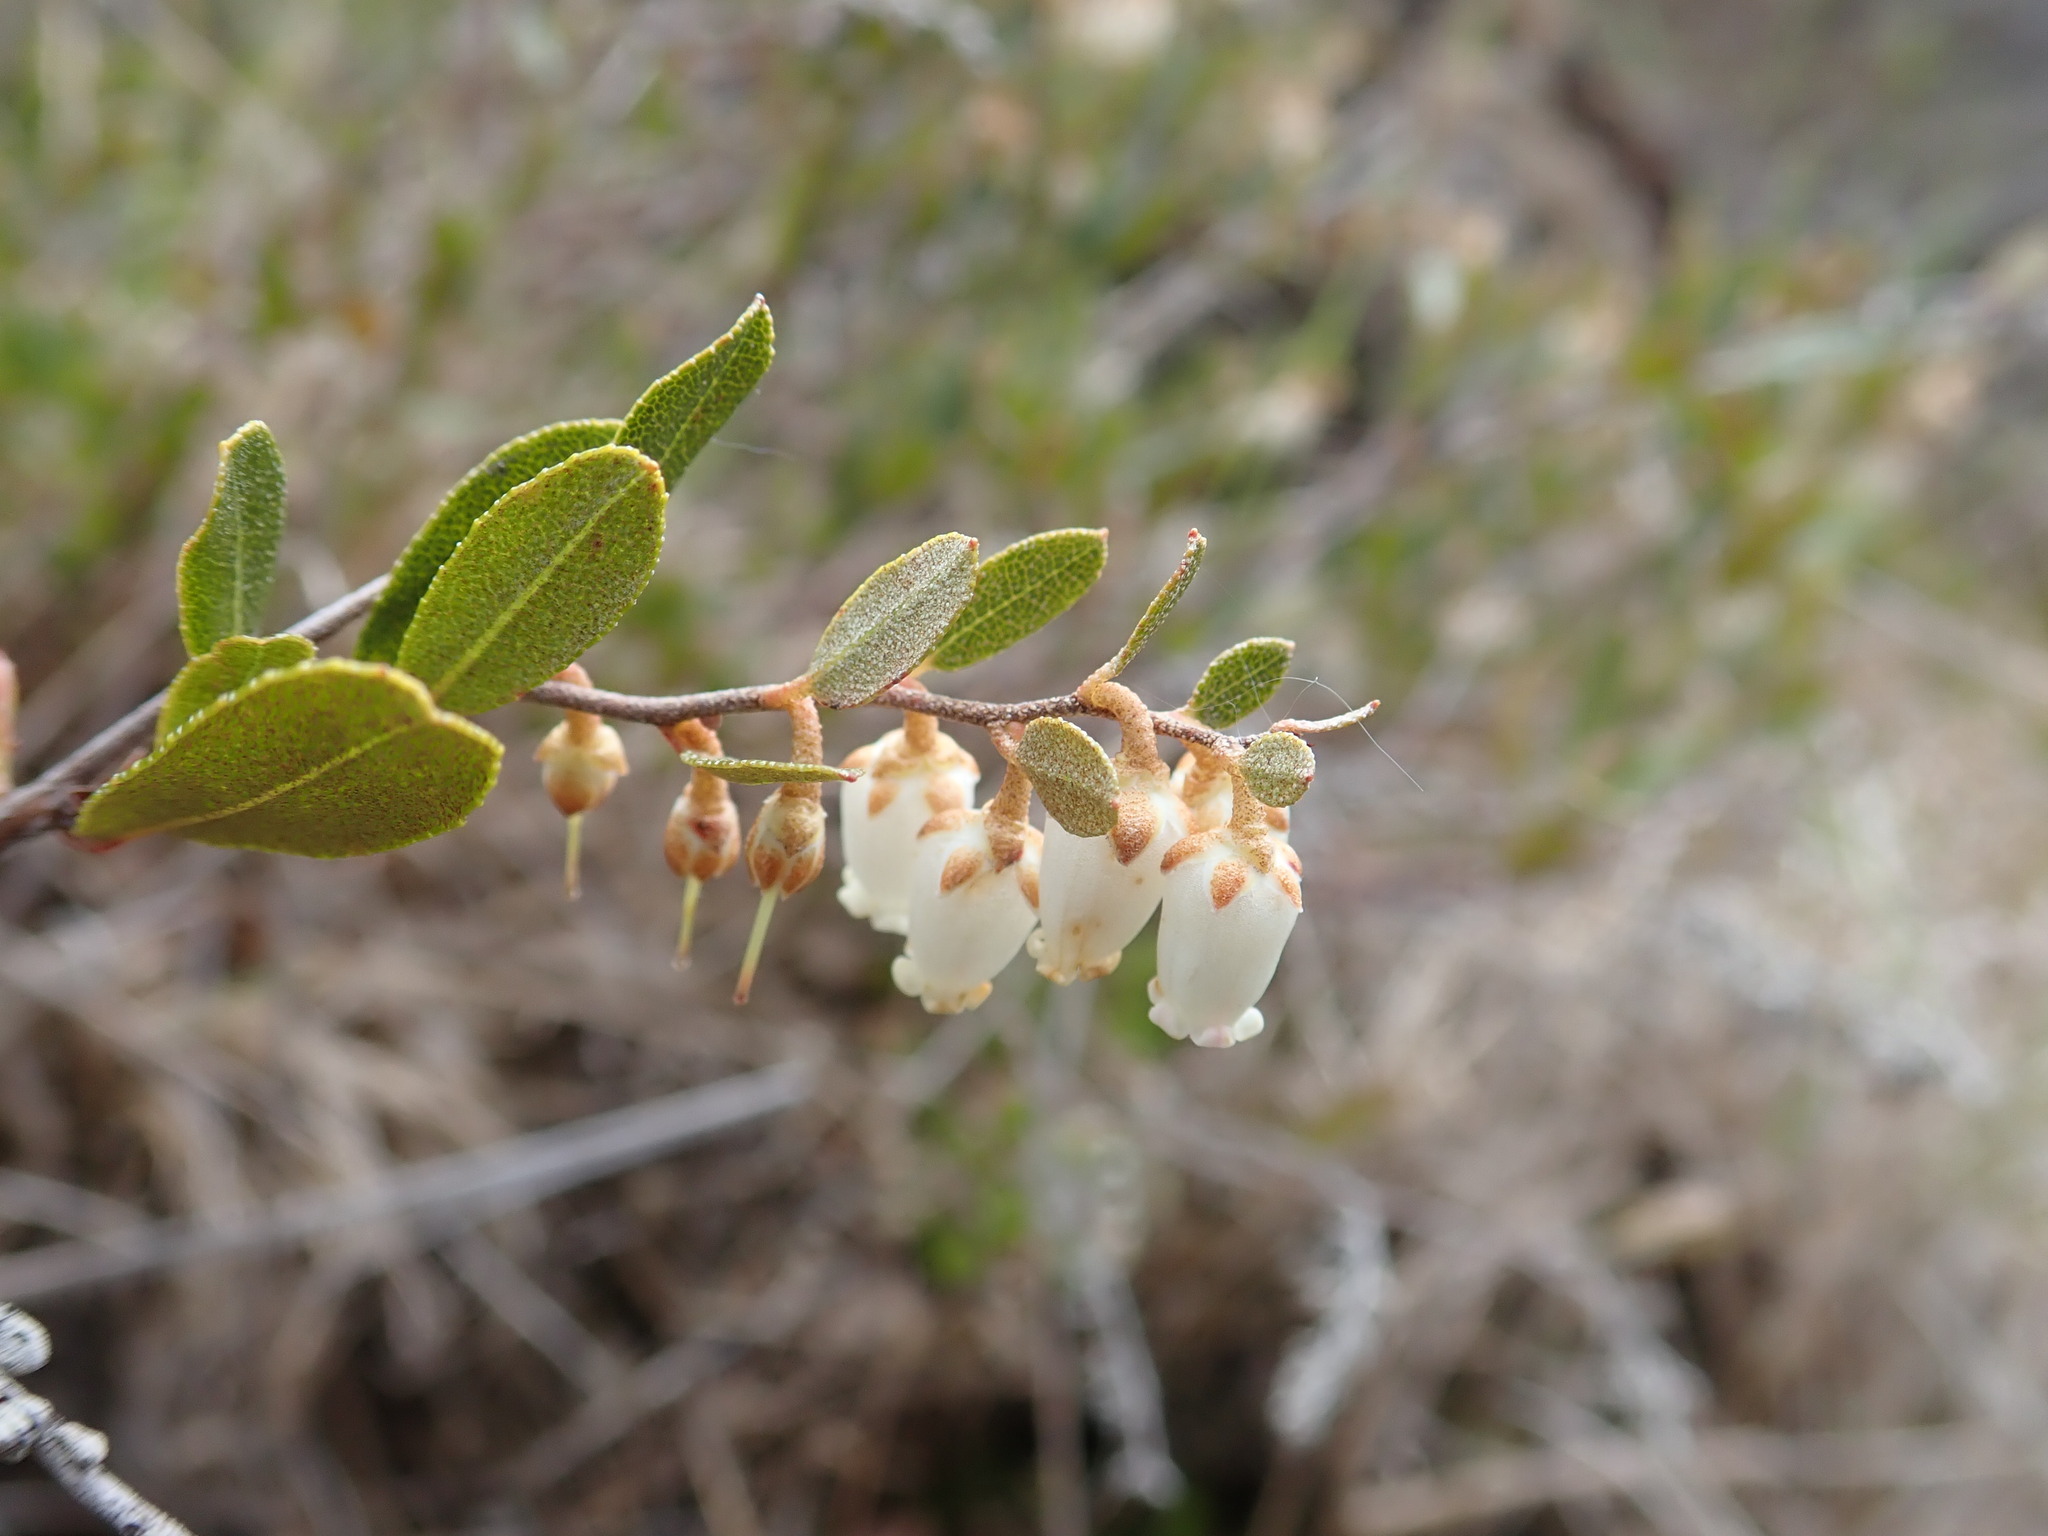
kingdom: Plantae
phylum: Tracheophyta
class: Magnoliopsida
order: Ericales
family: Ericaceae
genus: Chamaedaphne
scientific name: Chamaedaphne calyculata
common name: Leatherleaf
